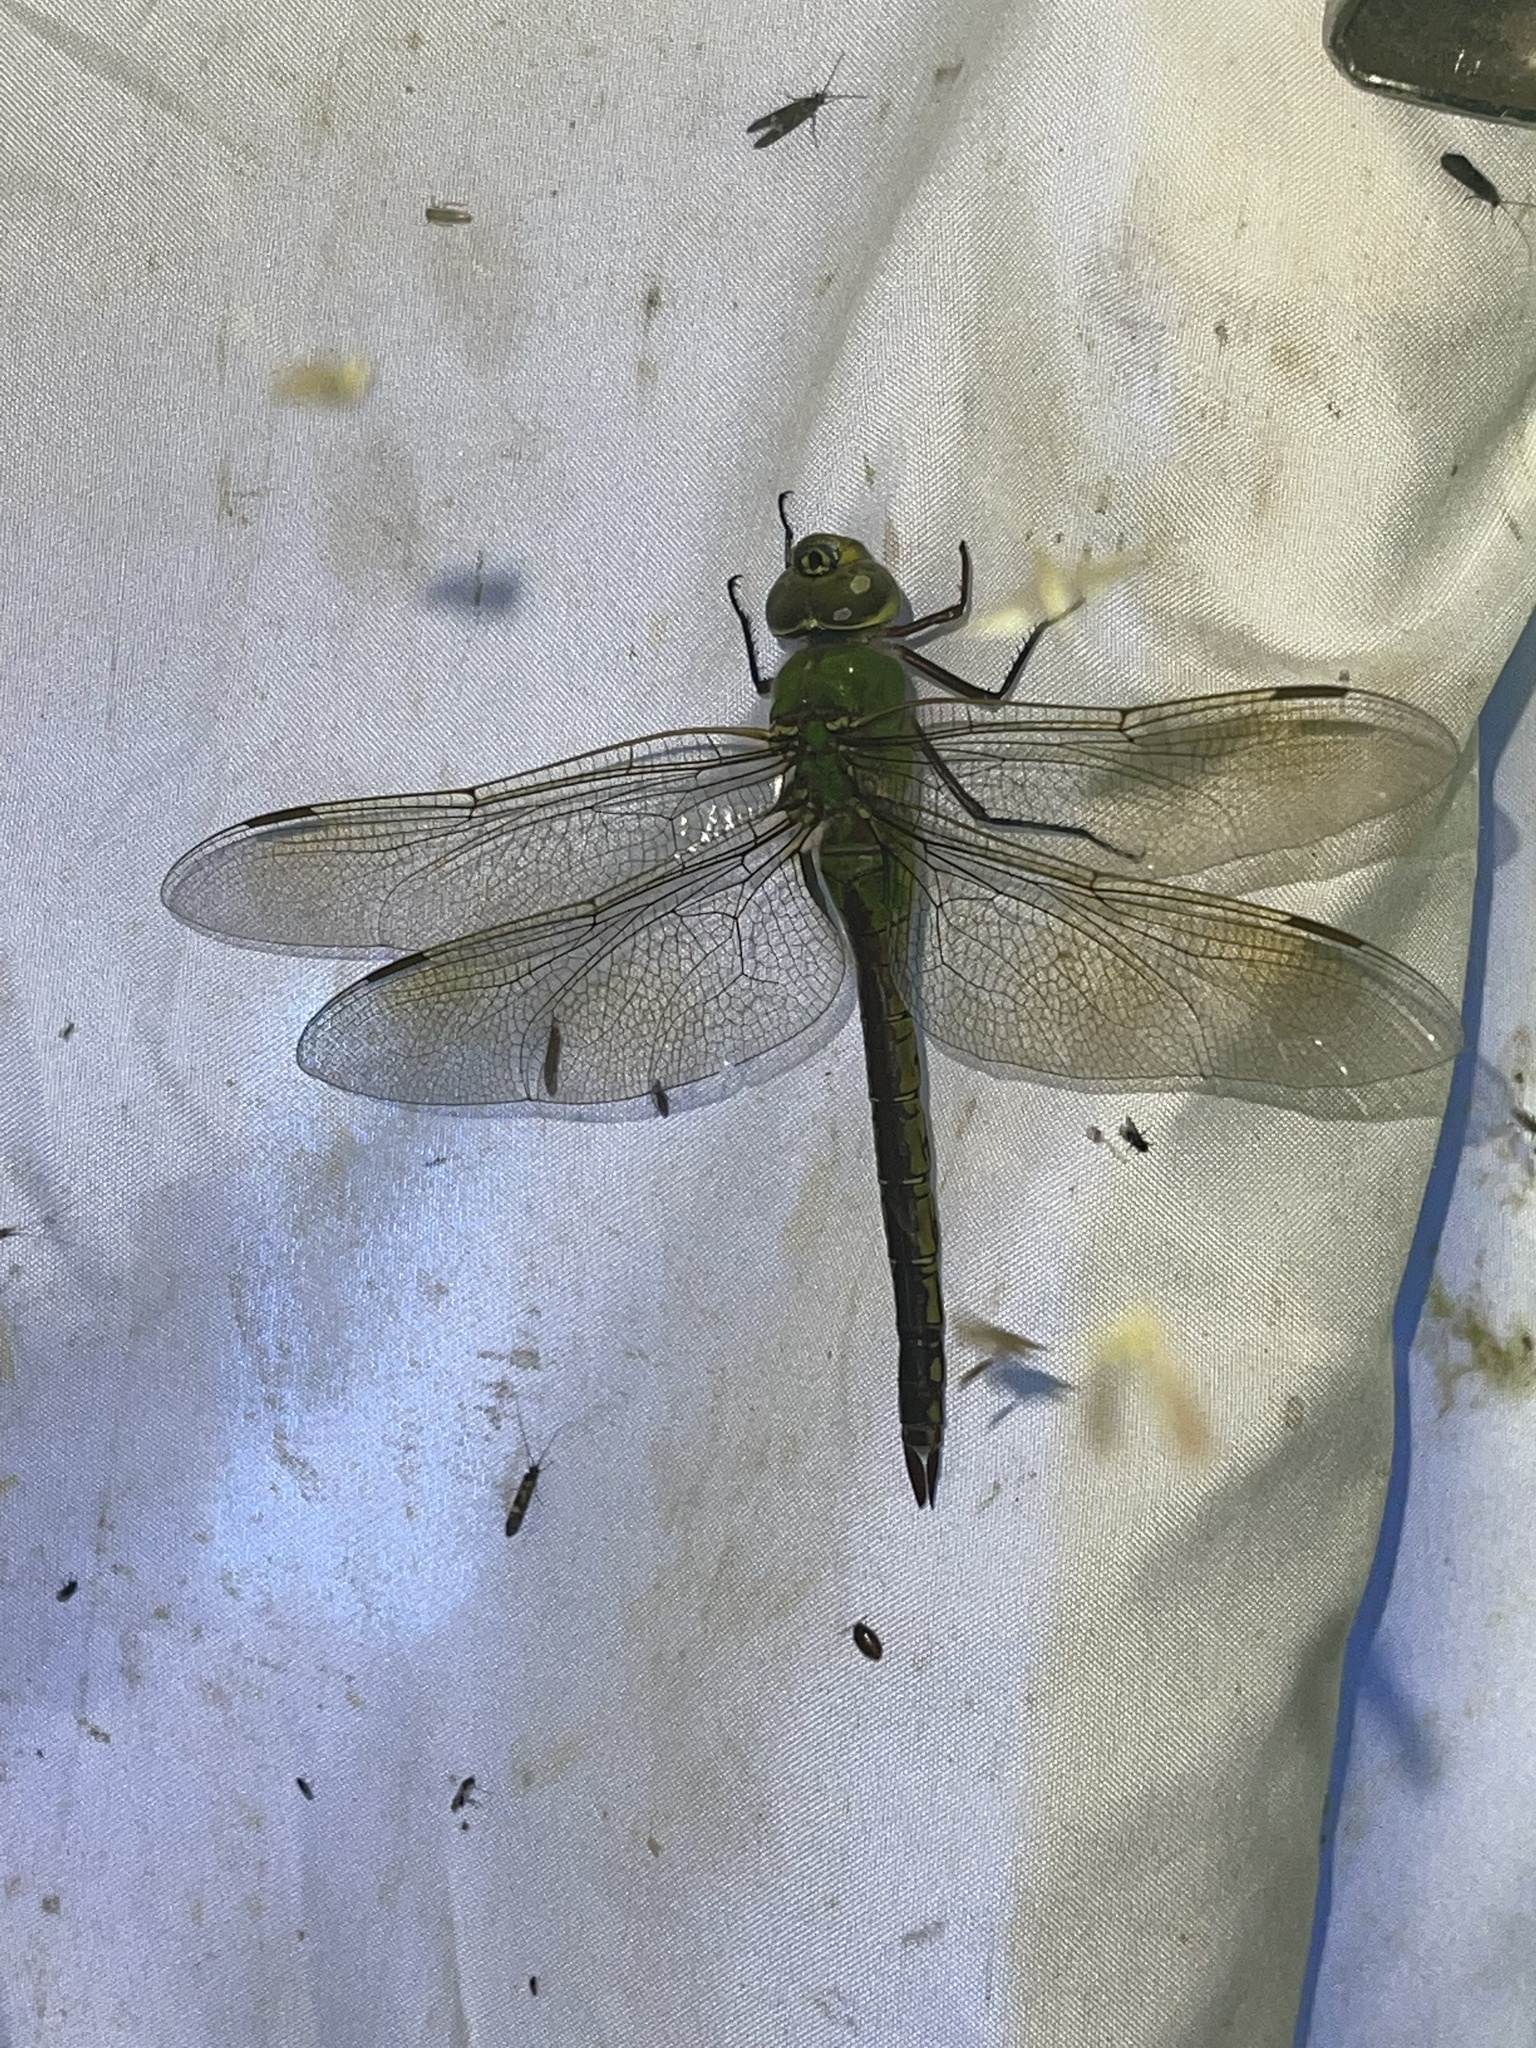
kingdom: Animalia
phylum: Arthropoda
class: Insecta
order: Odonata
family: Aeshnidae
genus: Anax
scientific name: Anax junius
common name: Common green darner
